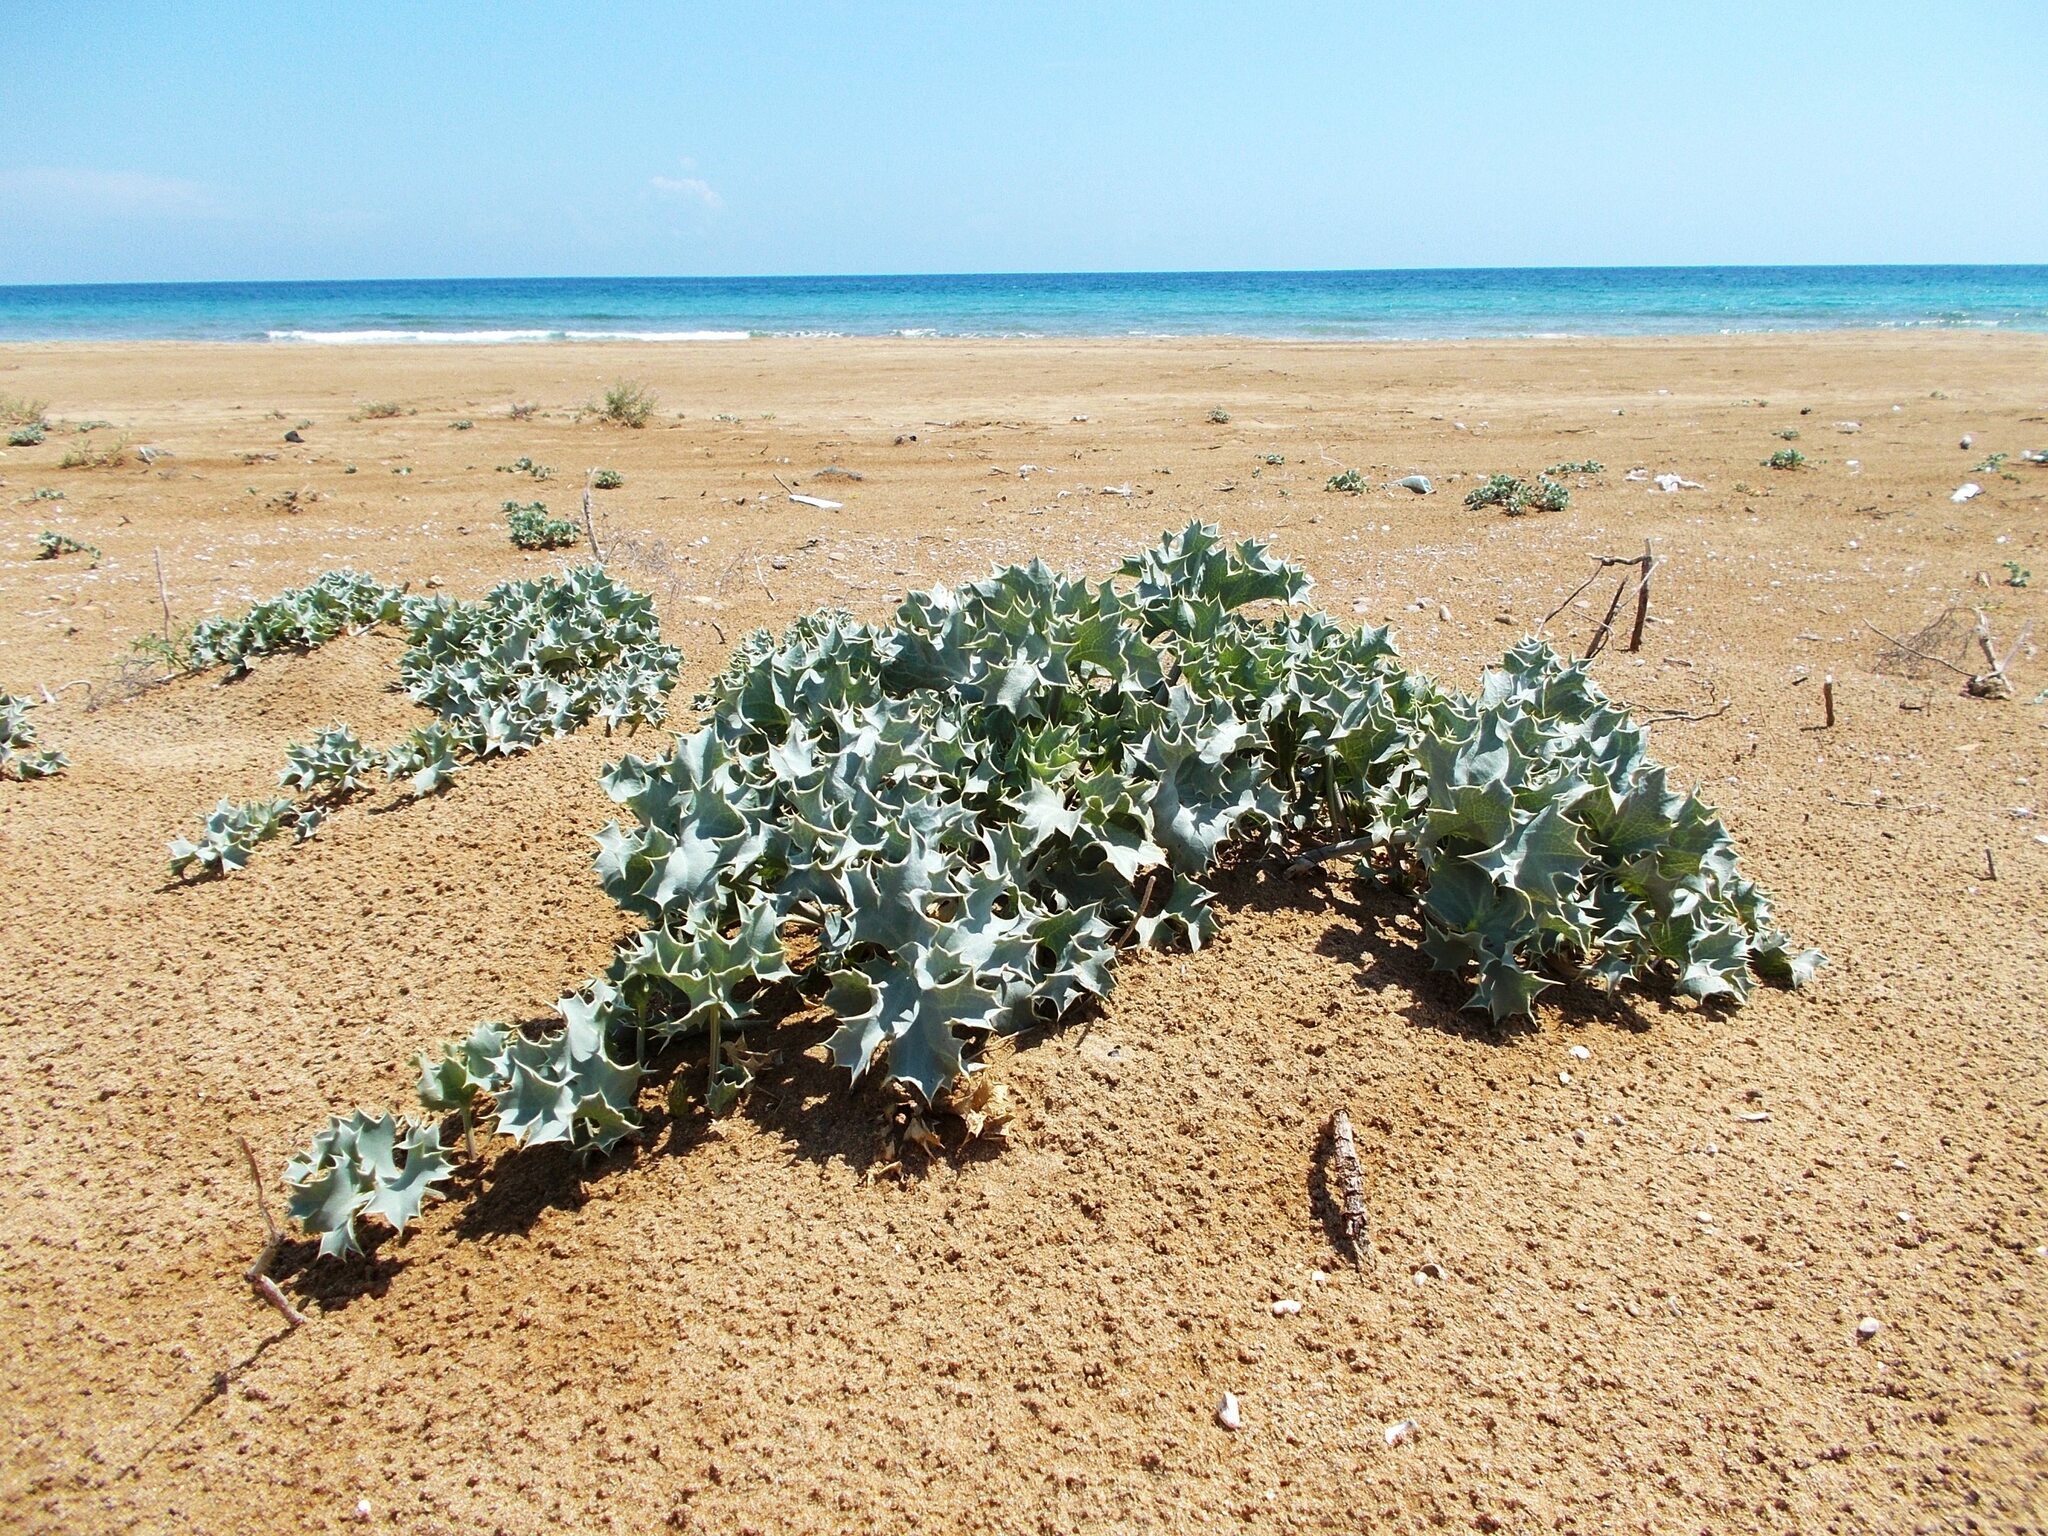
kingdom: Plantae
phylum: Tracheophyta
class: Magnoliopsida
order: Apiales
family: Apiaceae
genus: Eryngium
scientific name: Eryngium maritimum
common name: Sea-holly
